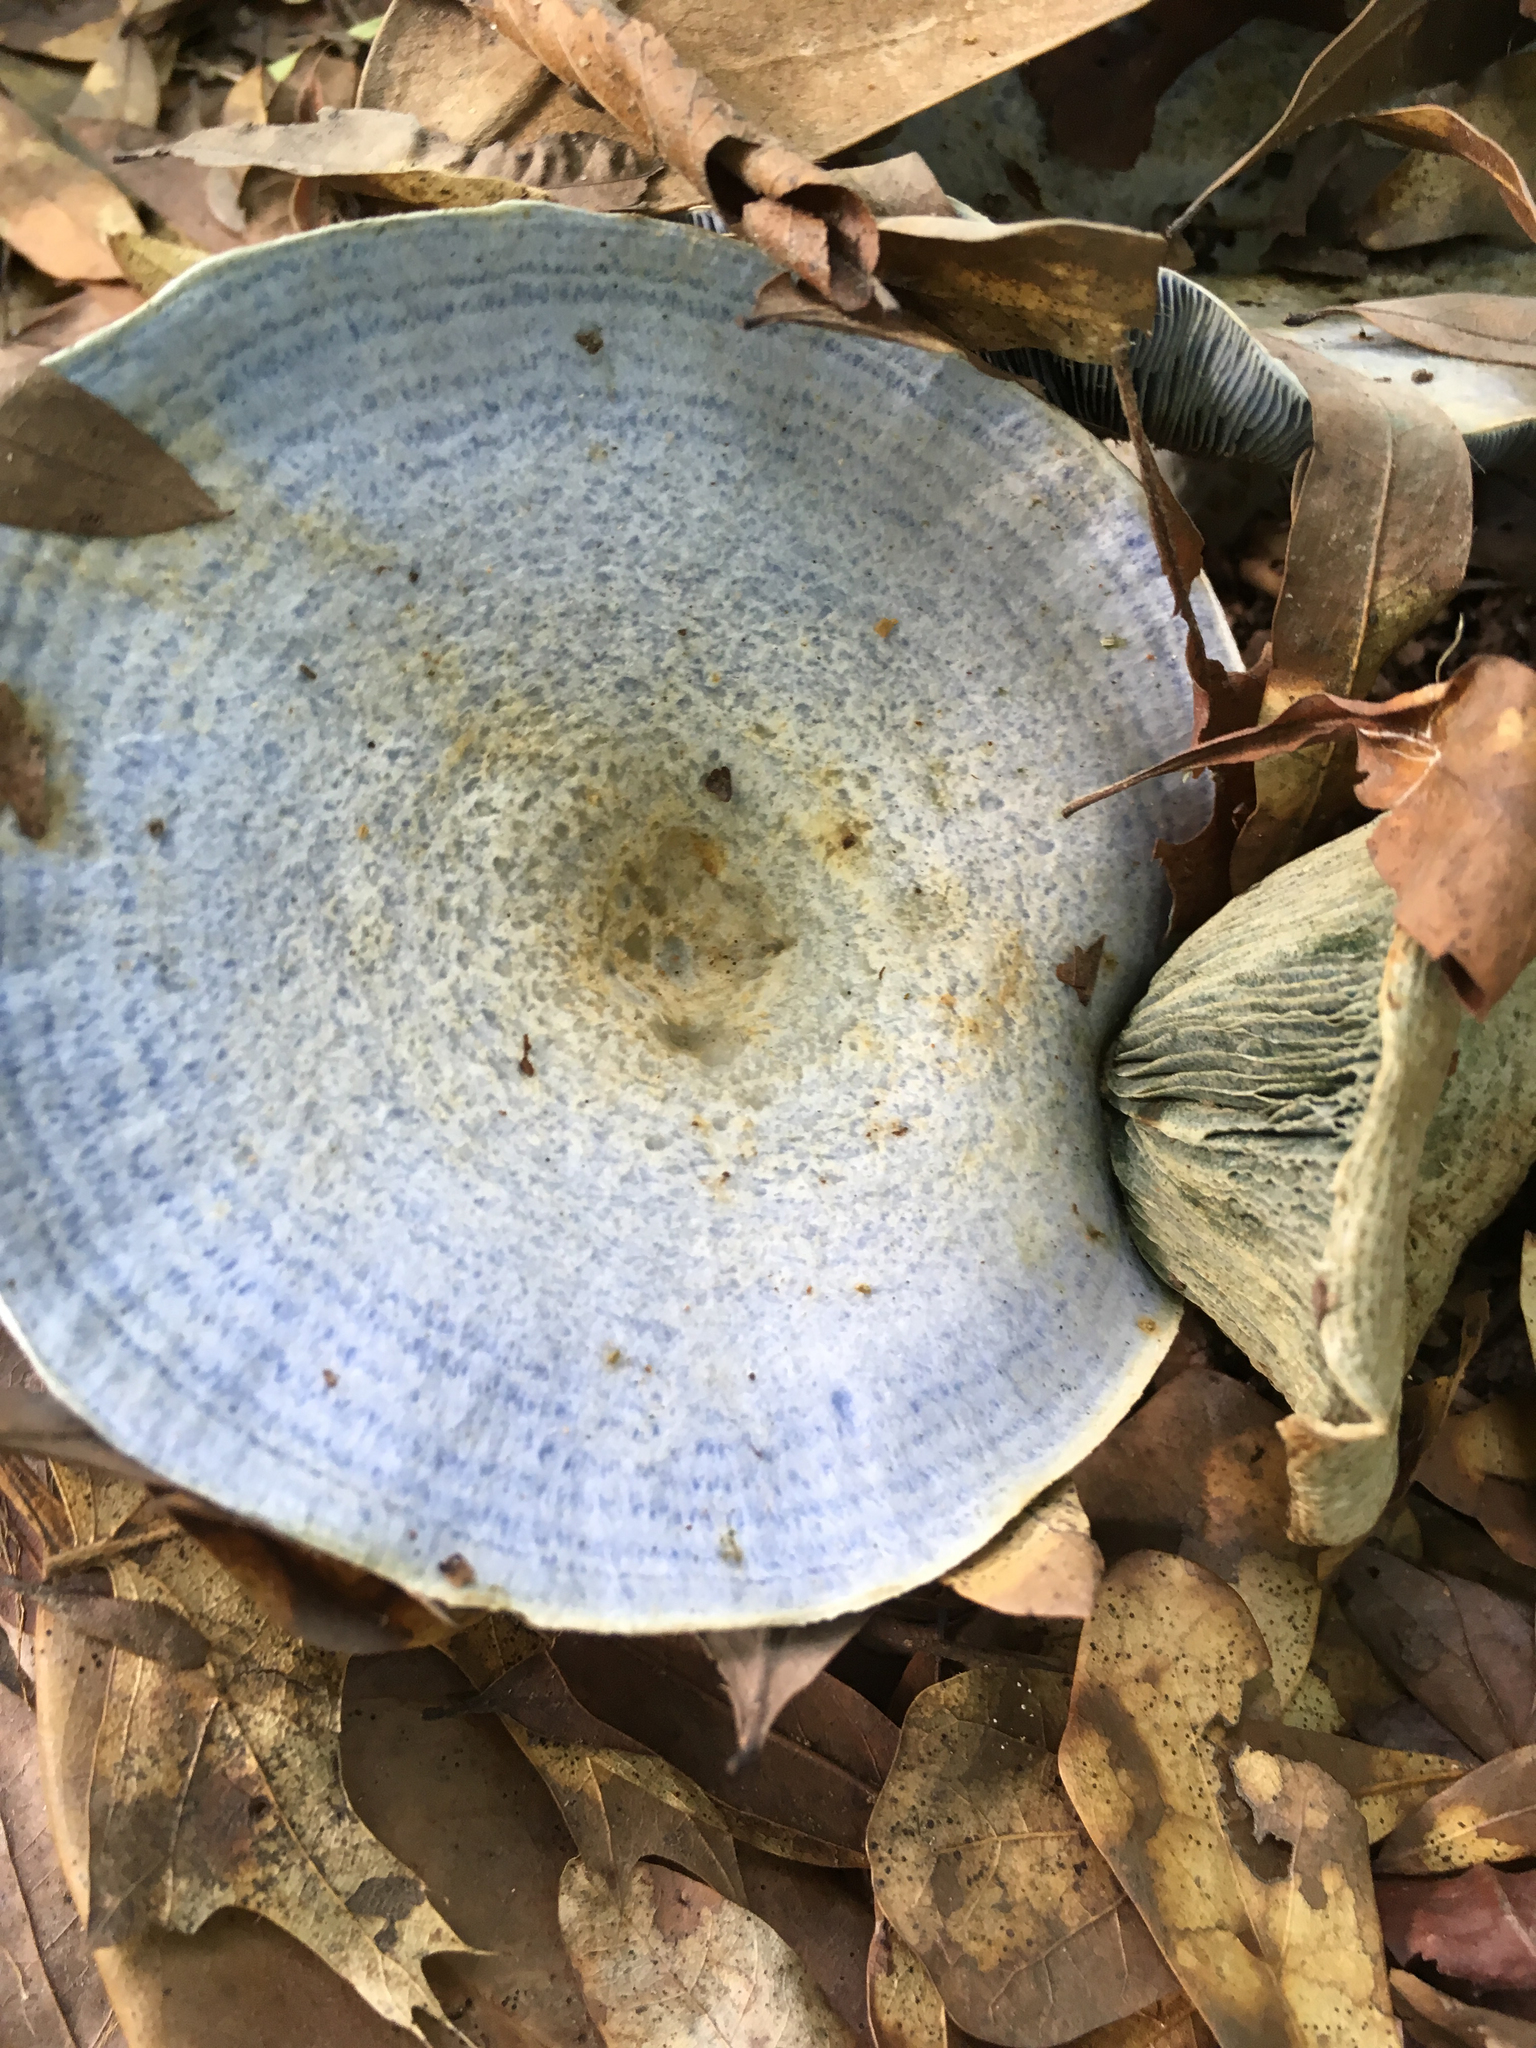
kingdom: Fungi
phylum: Basidiomycota
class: Agaricomycetes
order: Russulales
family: Russulaceae
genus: Lactarius
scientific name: Lactarius indigo
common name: Indigo milk cap
